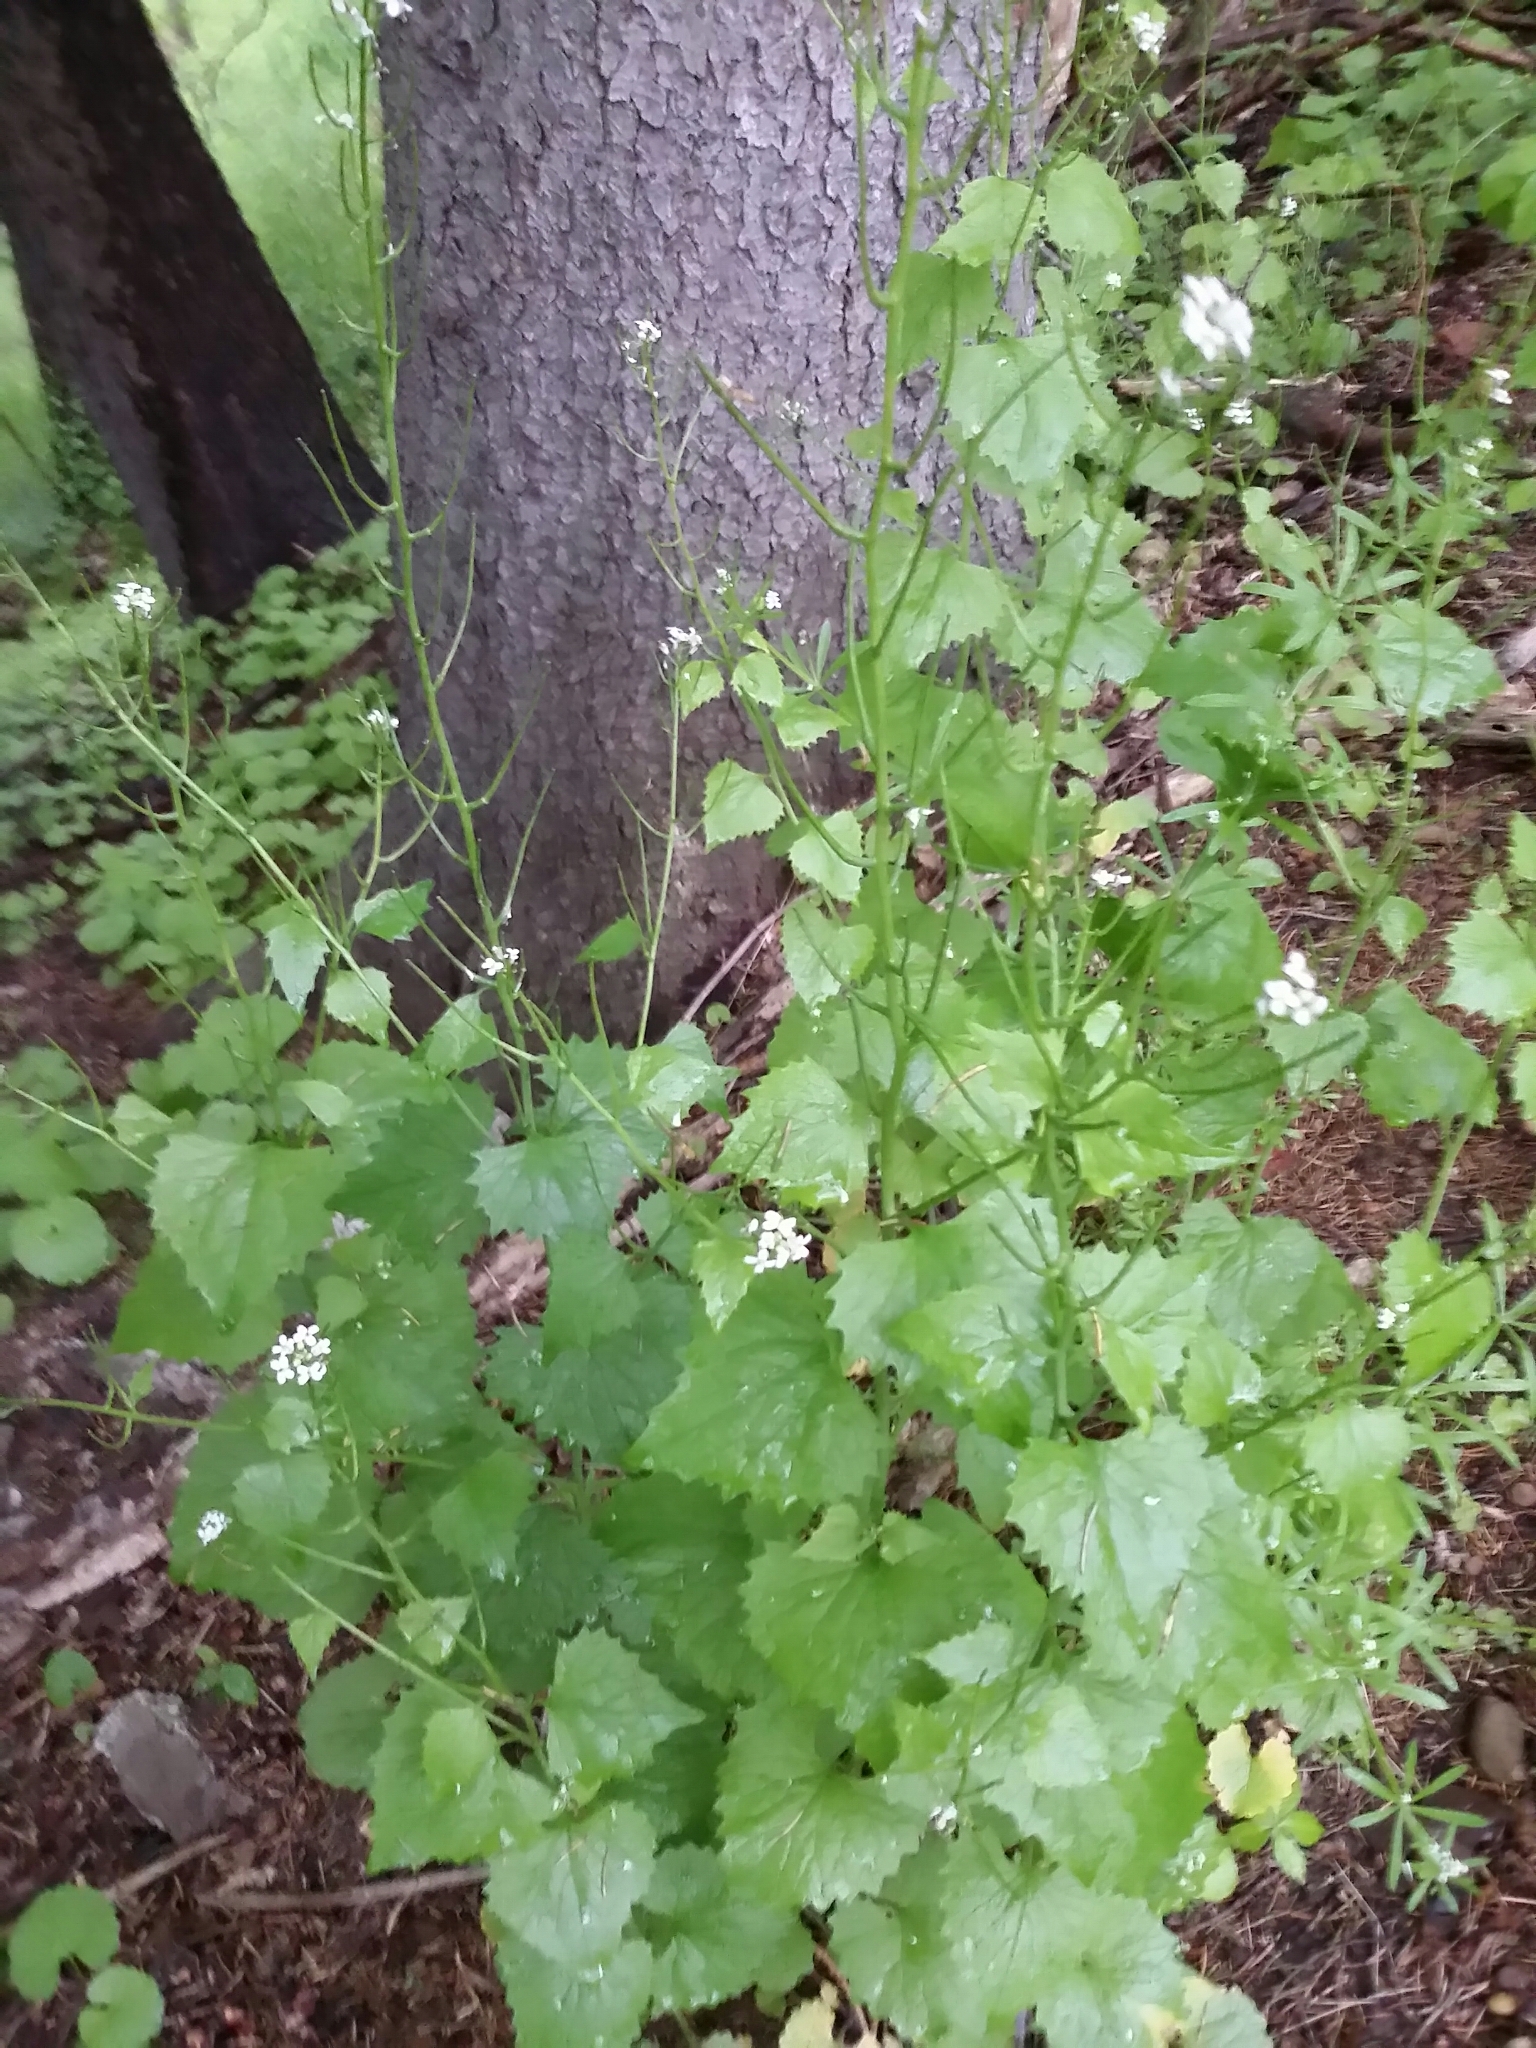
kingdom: Plantae
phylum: Tracheophyta
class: Magnoliopsida
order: Brassicales
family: Brassicaceae
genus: Alliaria
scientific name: Alliaria petiolata
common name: Garlic mustard
